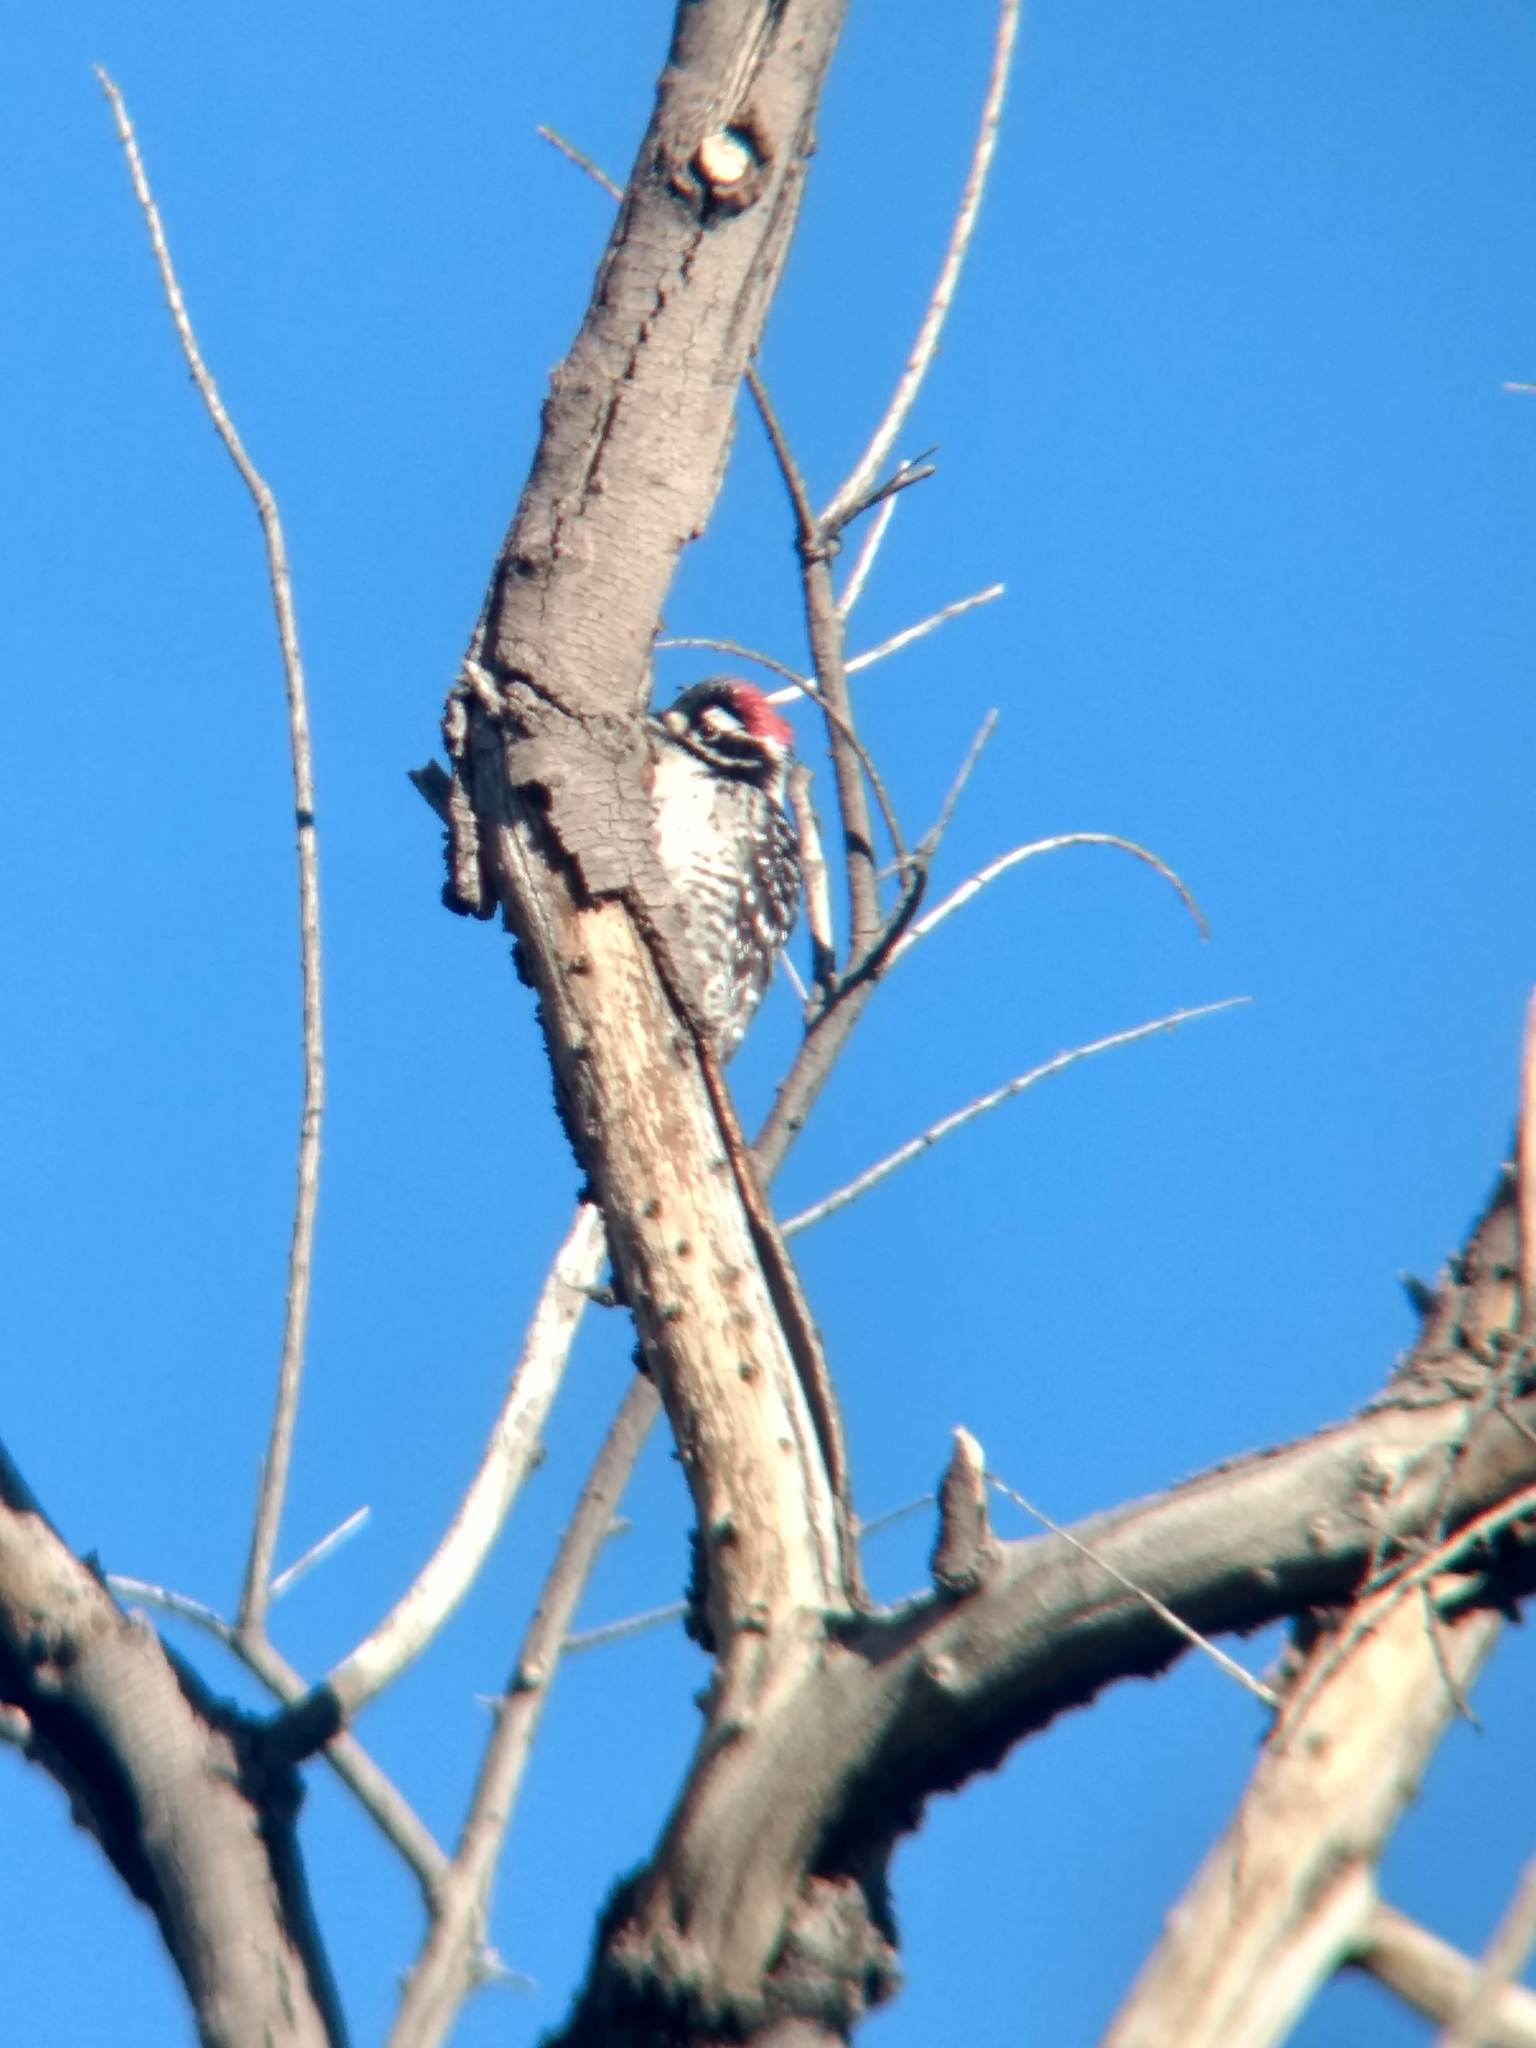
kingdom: Animalia
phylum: Chordata
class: Aves
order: Piciformes
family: Picidae
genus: Dryobates
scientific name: Dryobates nuttallii
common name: Nuttall's woodpecker
